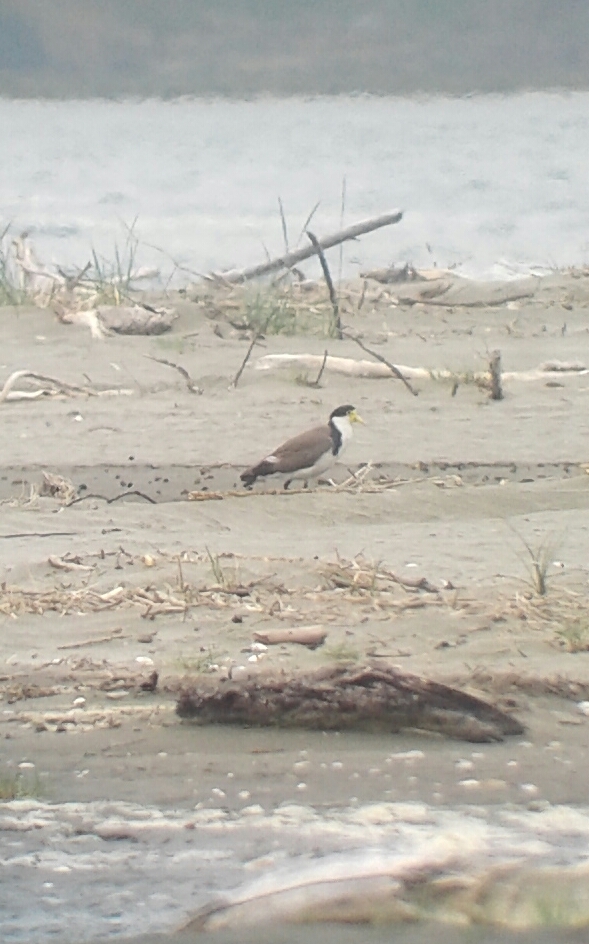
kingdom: Animalia
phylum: Chordata
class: Aves
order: Charadriiformes
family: Charadriidae
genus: Vanellus
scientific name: Vanellus miles
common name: Masked lapwing
